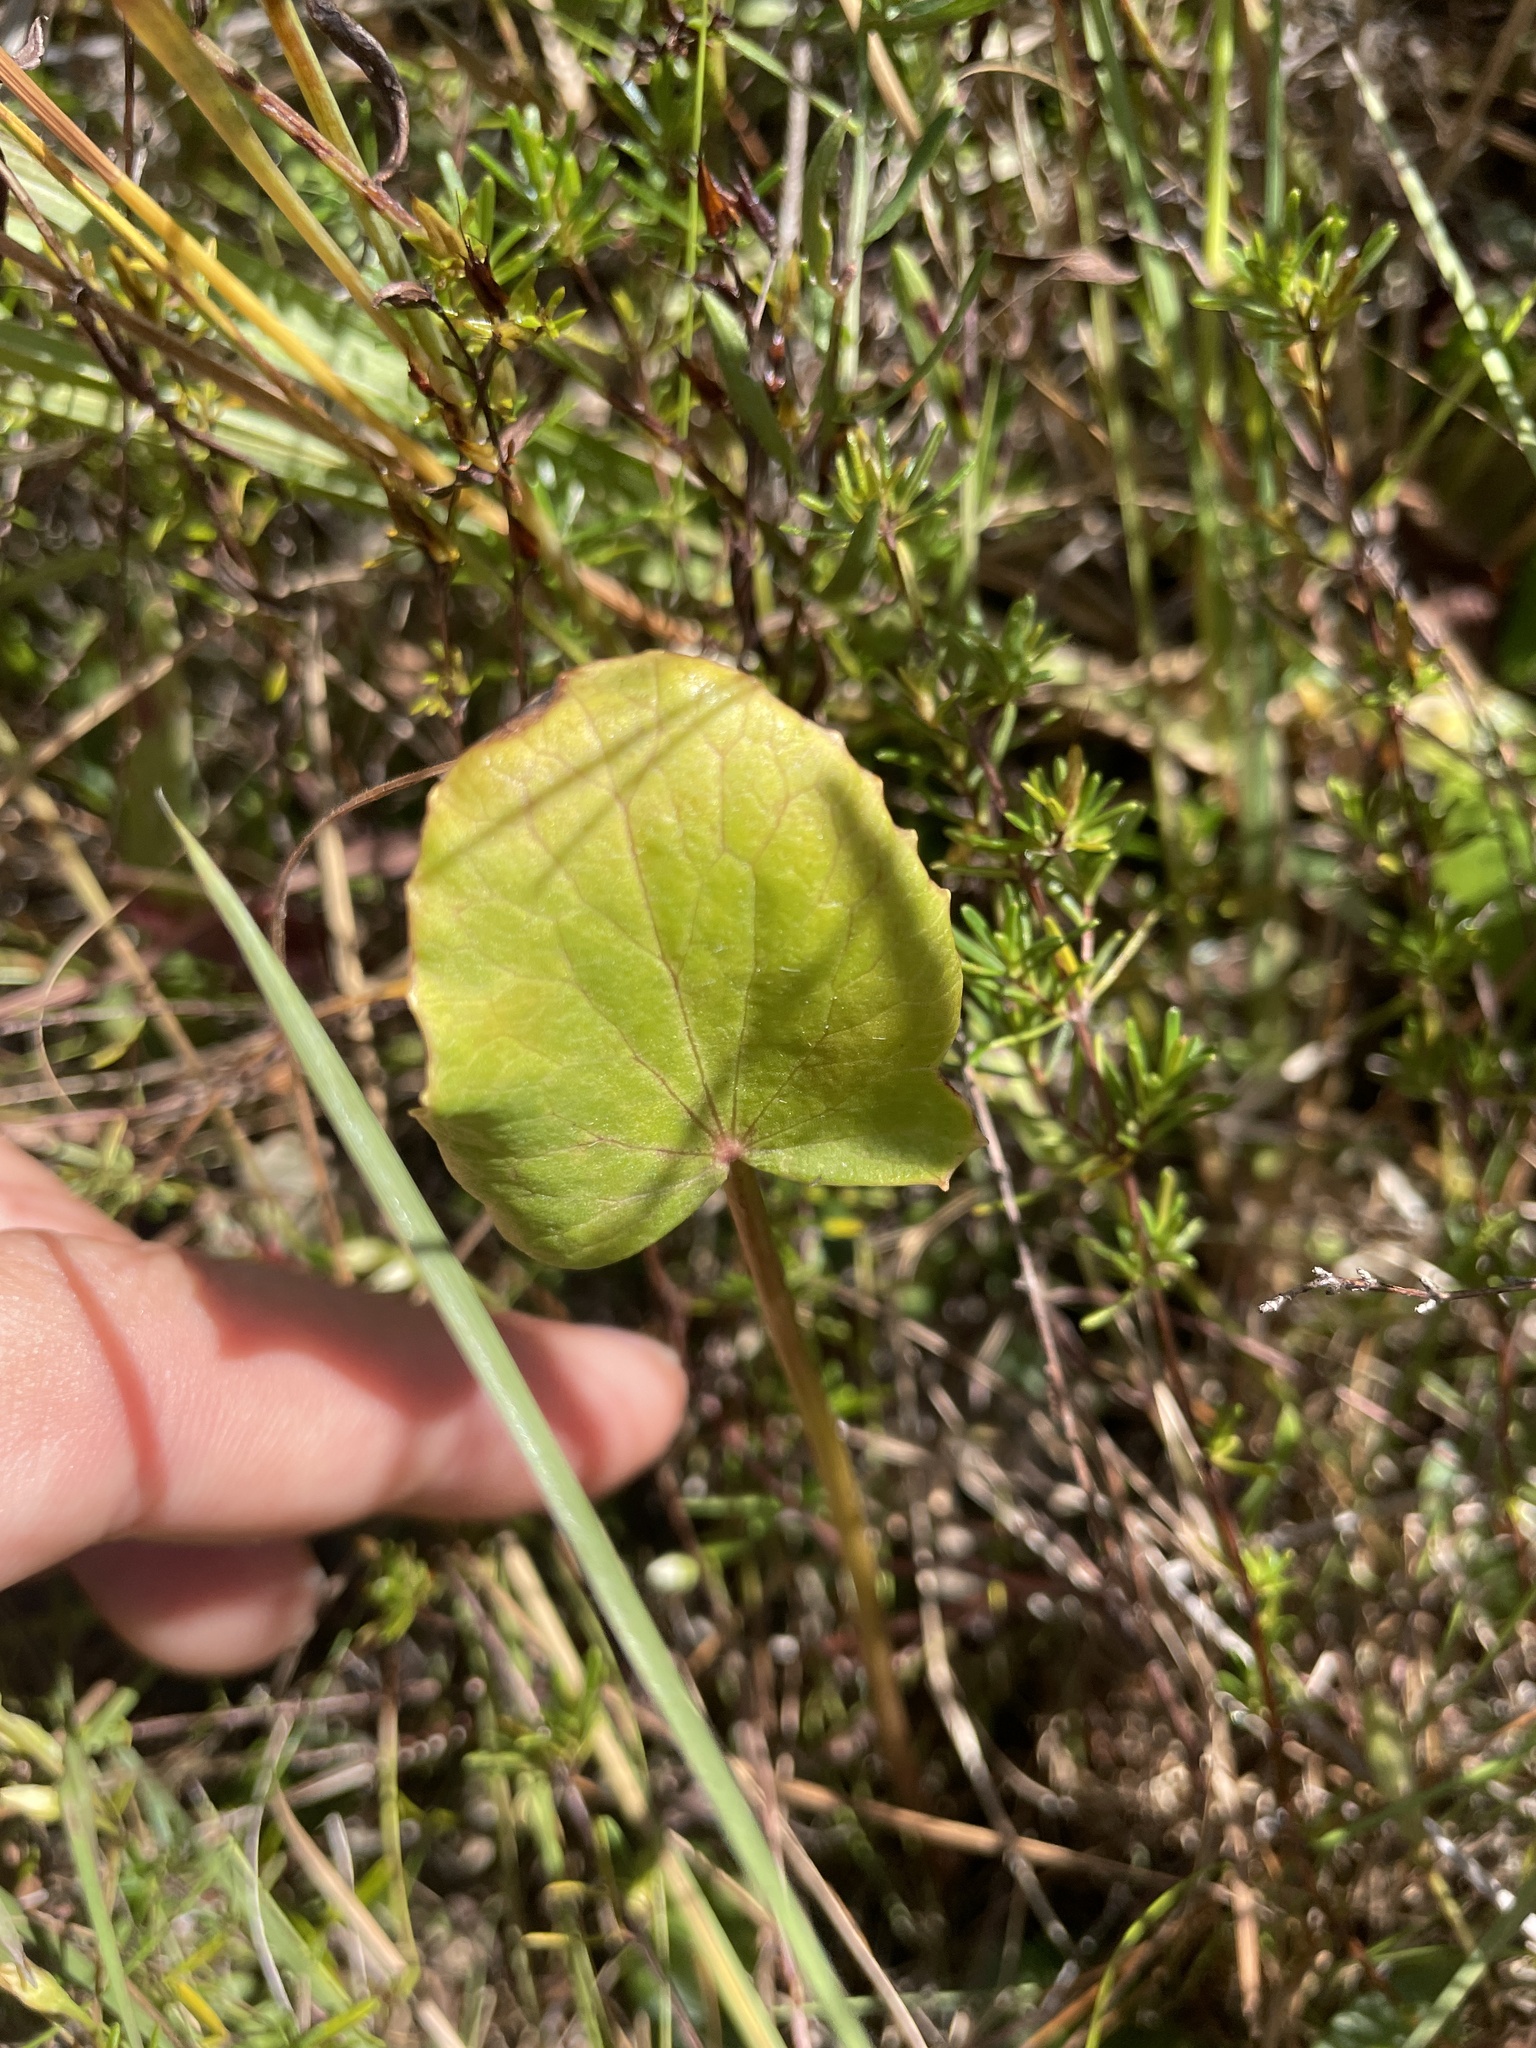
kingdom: Plantae
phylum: Tracheophyta
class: Magnoliopsida
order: Apiales
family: Apiaceae
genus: Centella
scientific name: Centella erecta
